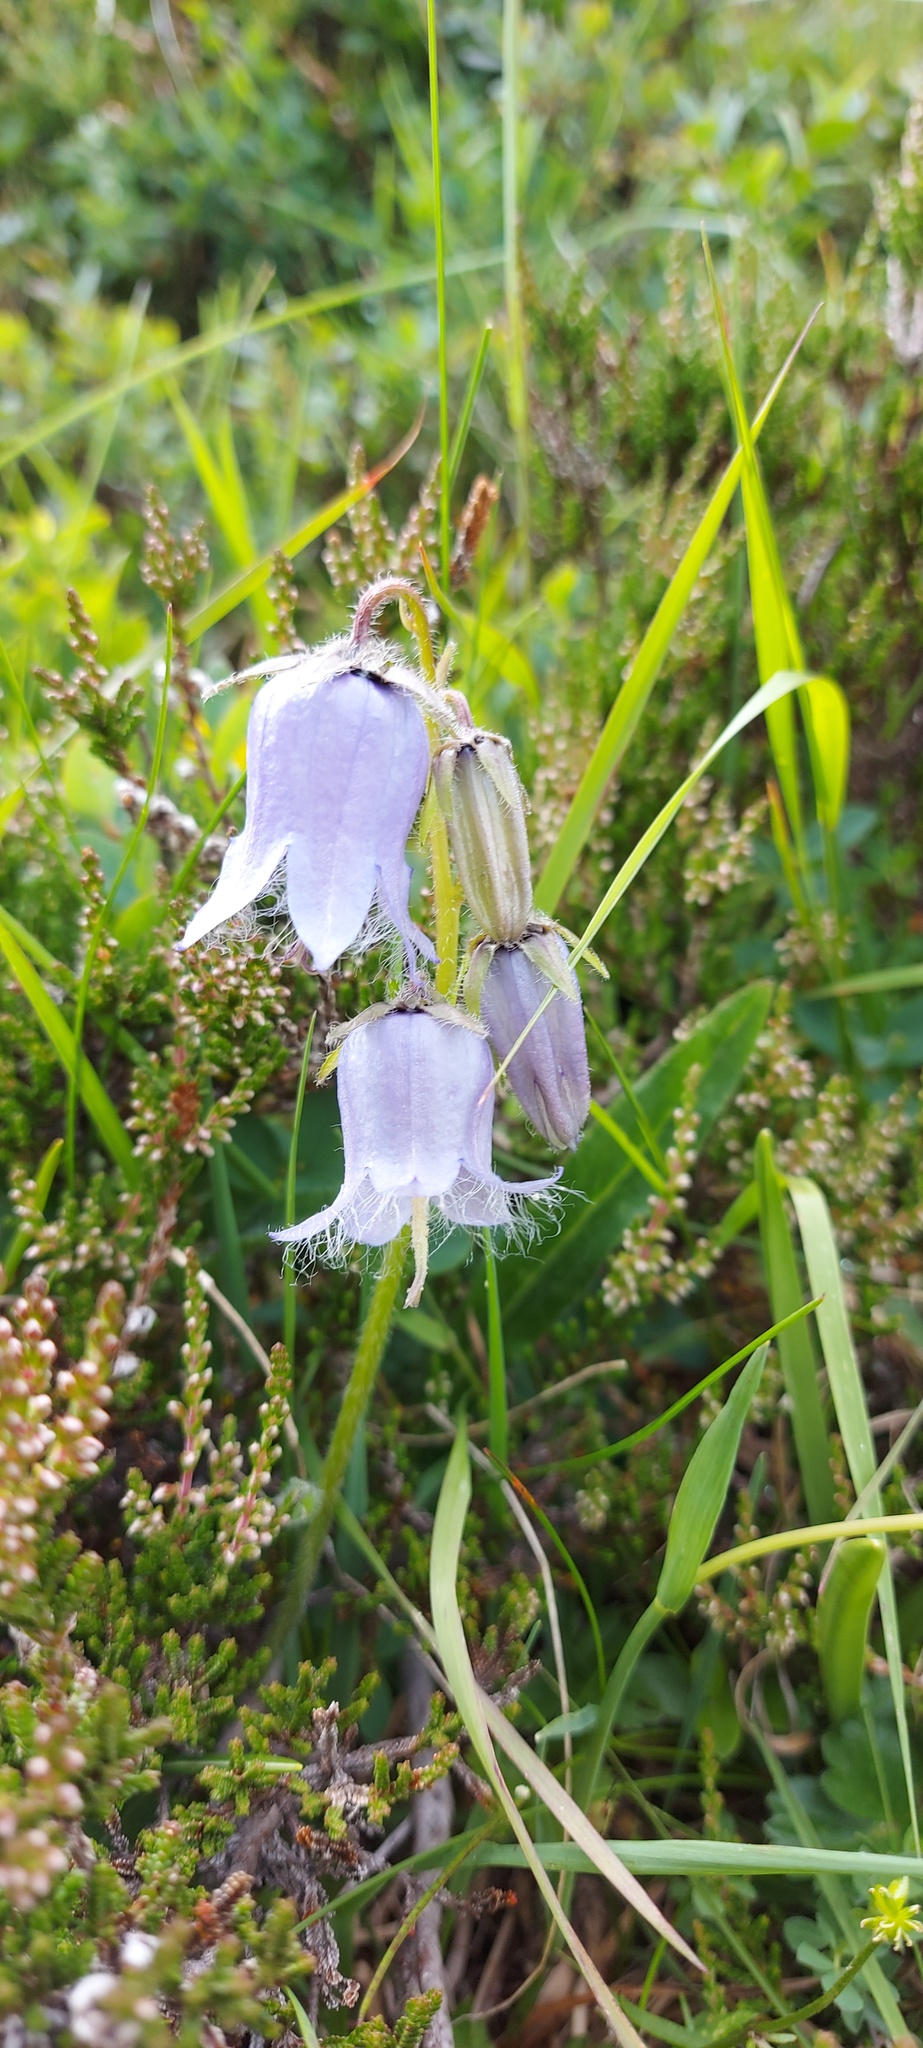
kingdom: Plantae
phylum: Tracheophyta
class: Magnoliopsida
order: Asterales
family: Campanulaceae
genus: Campanula
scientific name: Campanula barbata
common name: Bearded bellflower
